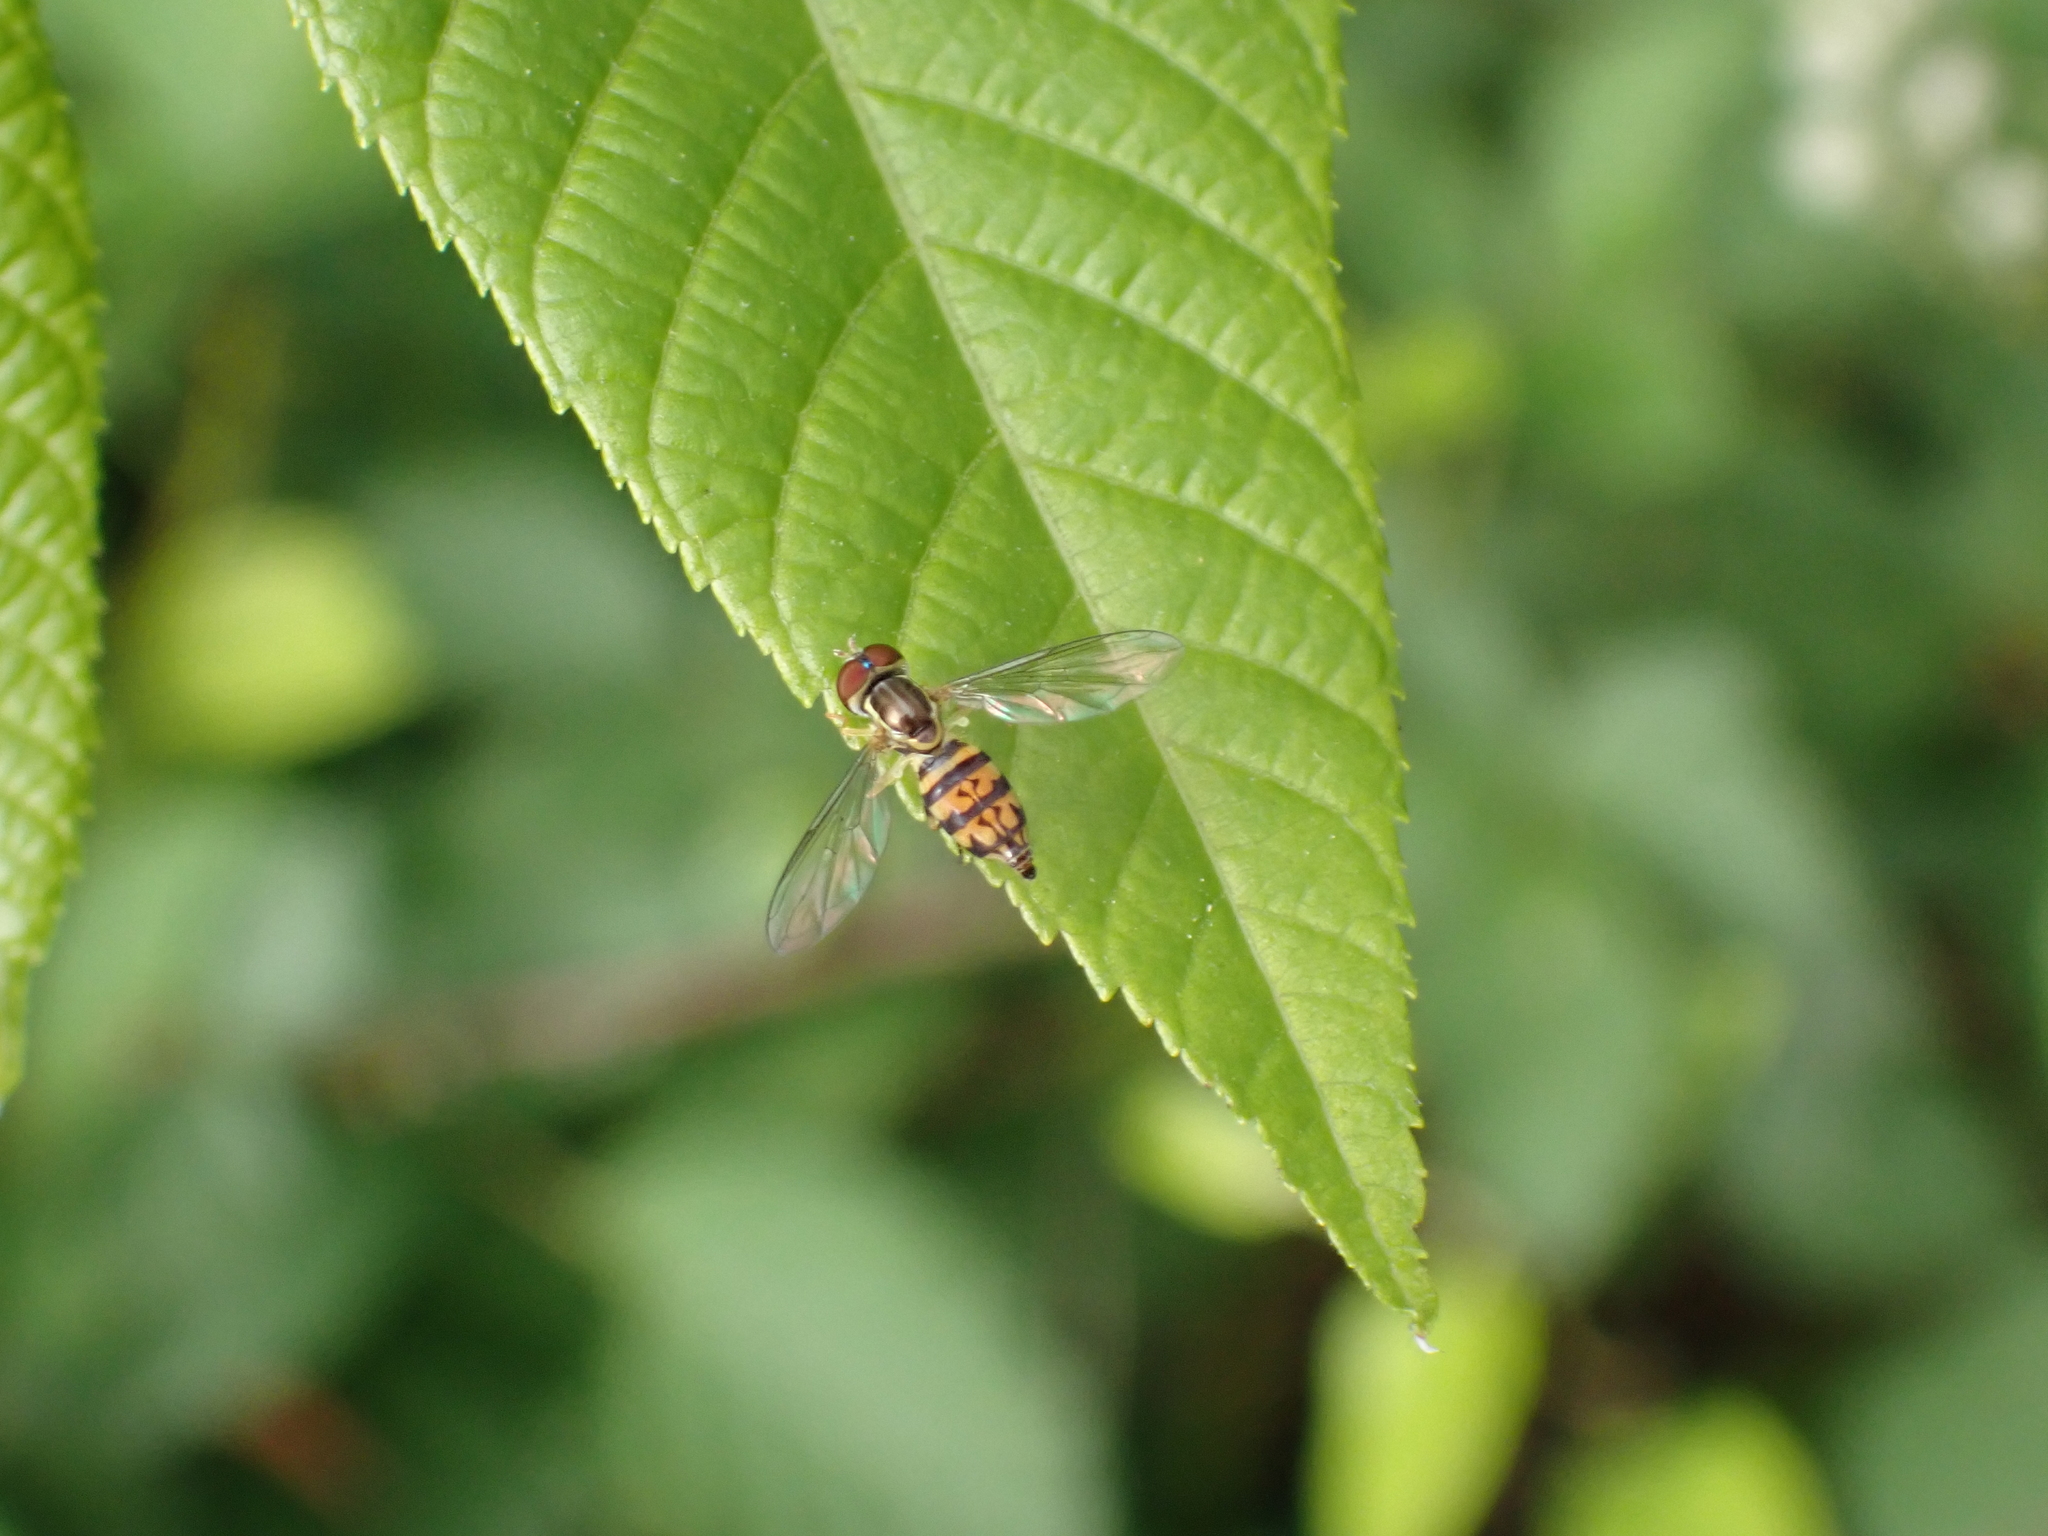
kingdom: Animalia
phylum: Arthropoda
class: Insecta
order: Diptera
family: Syrphidae
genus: Toxomerus
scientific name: Toxomerus geminatus
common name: Eastern calligrapher
